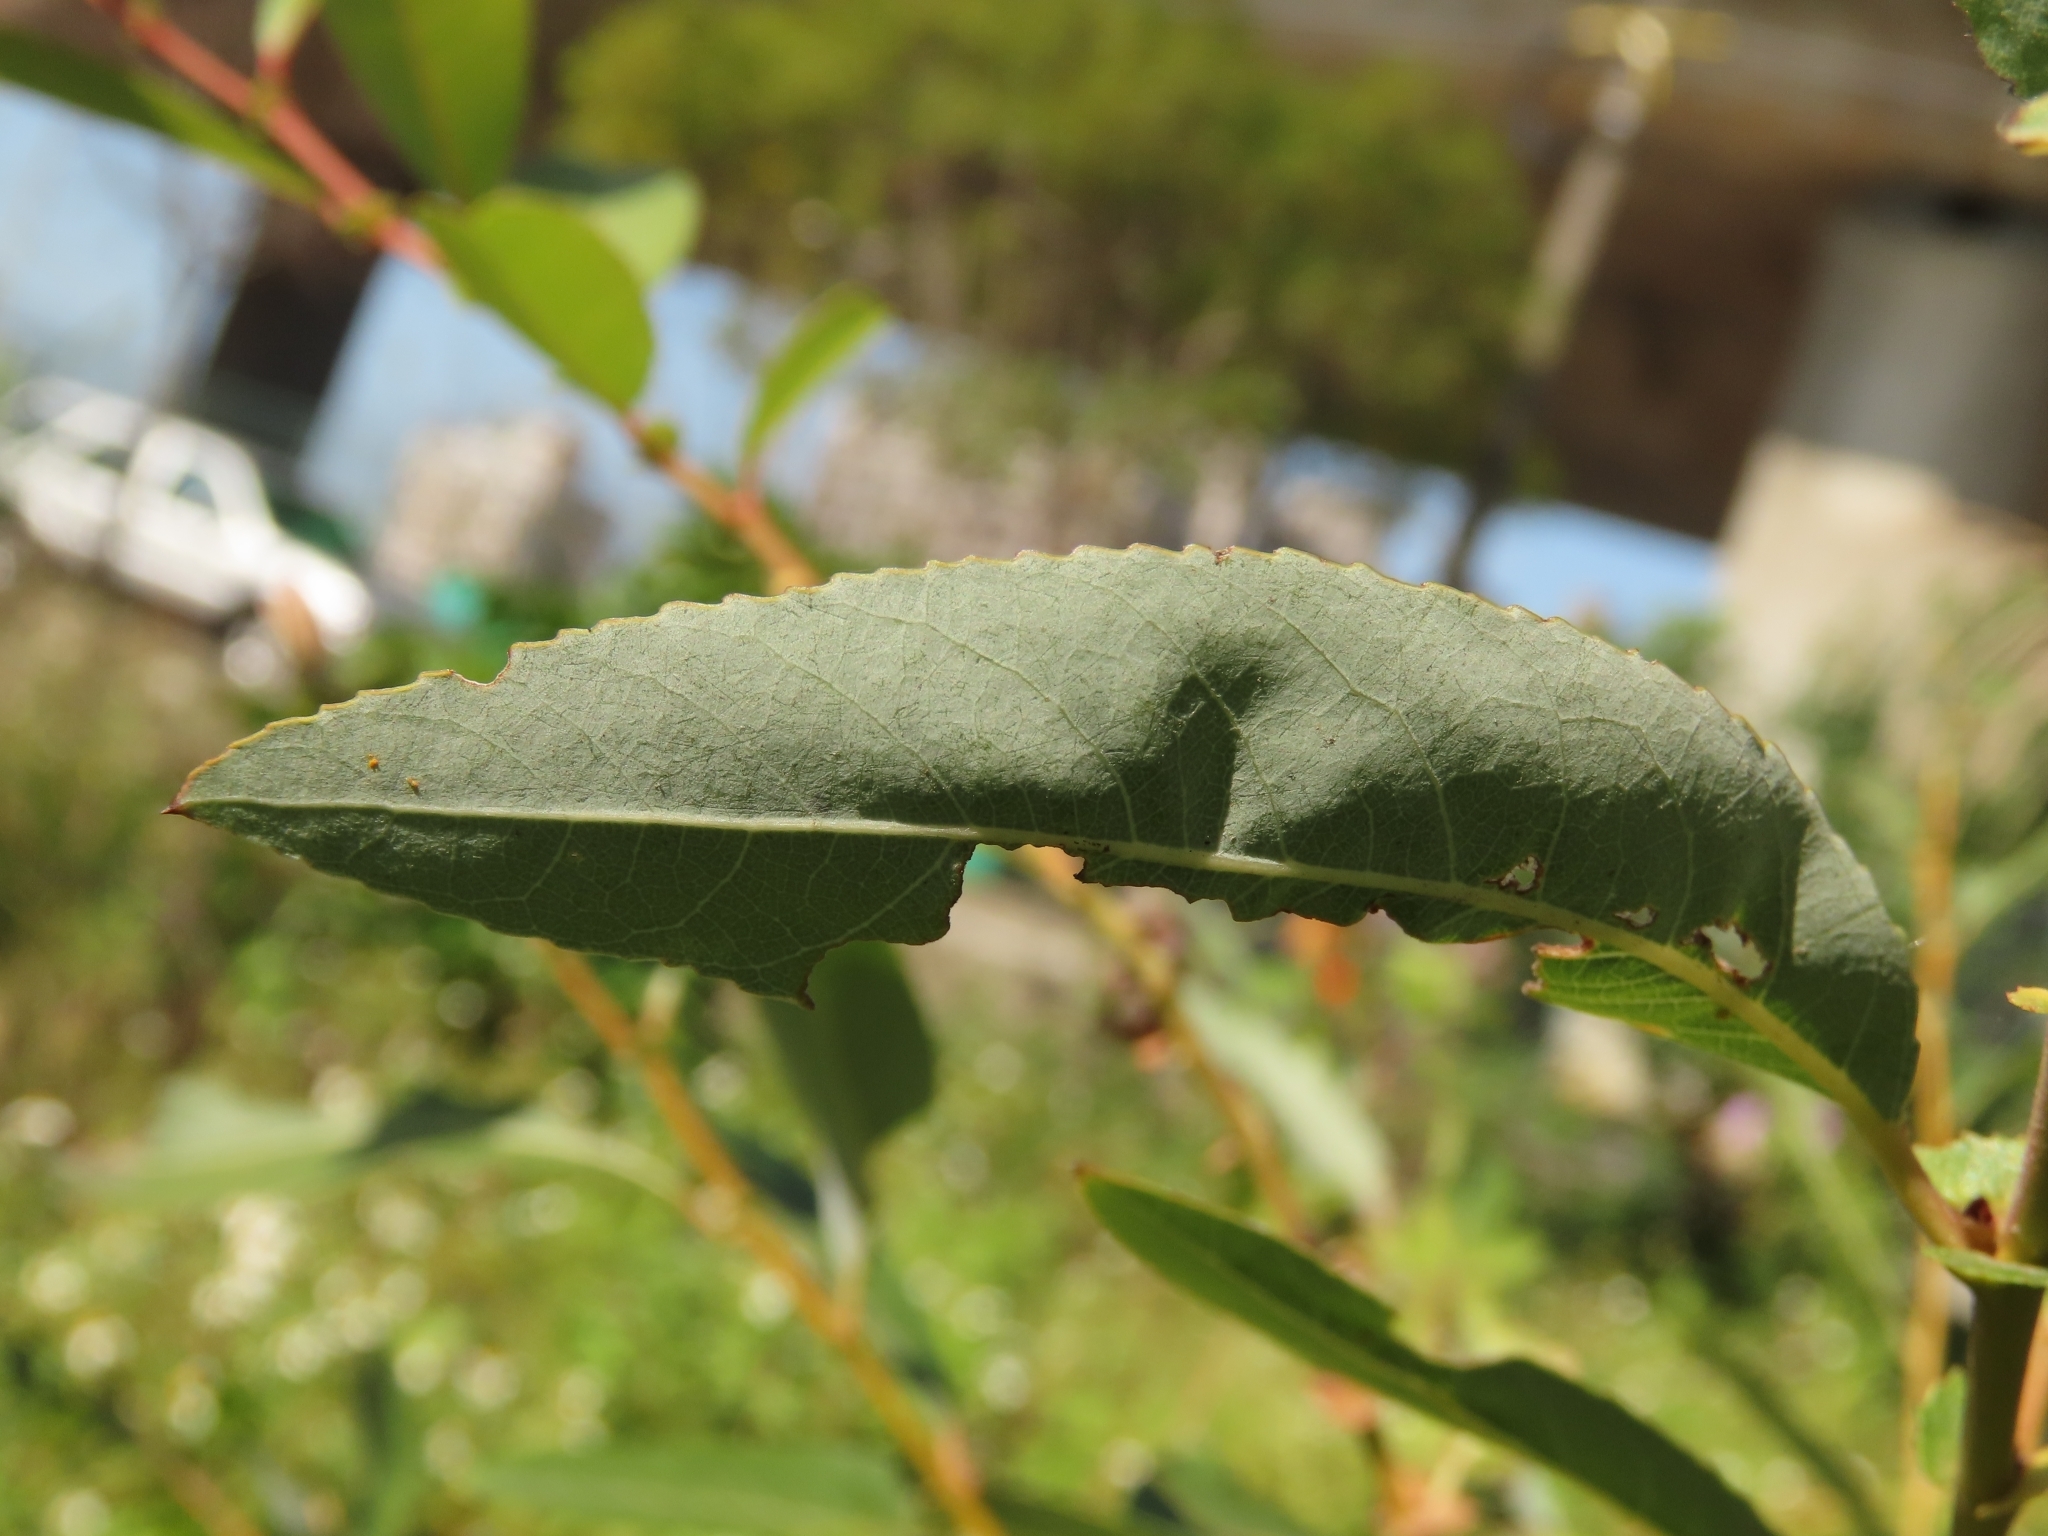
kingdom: Plantae
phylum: Tracheophyta
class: Magnoliopsida
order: Malpighiales
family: Salicaceae
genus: Salix
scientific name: Salix mesnyi
